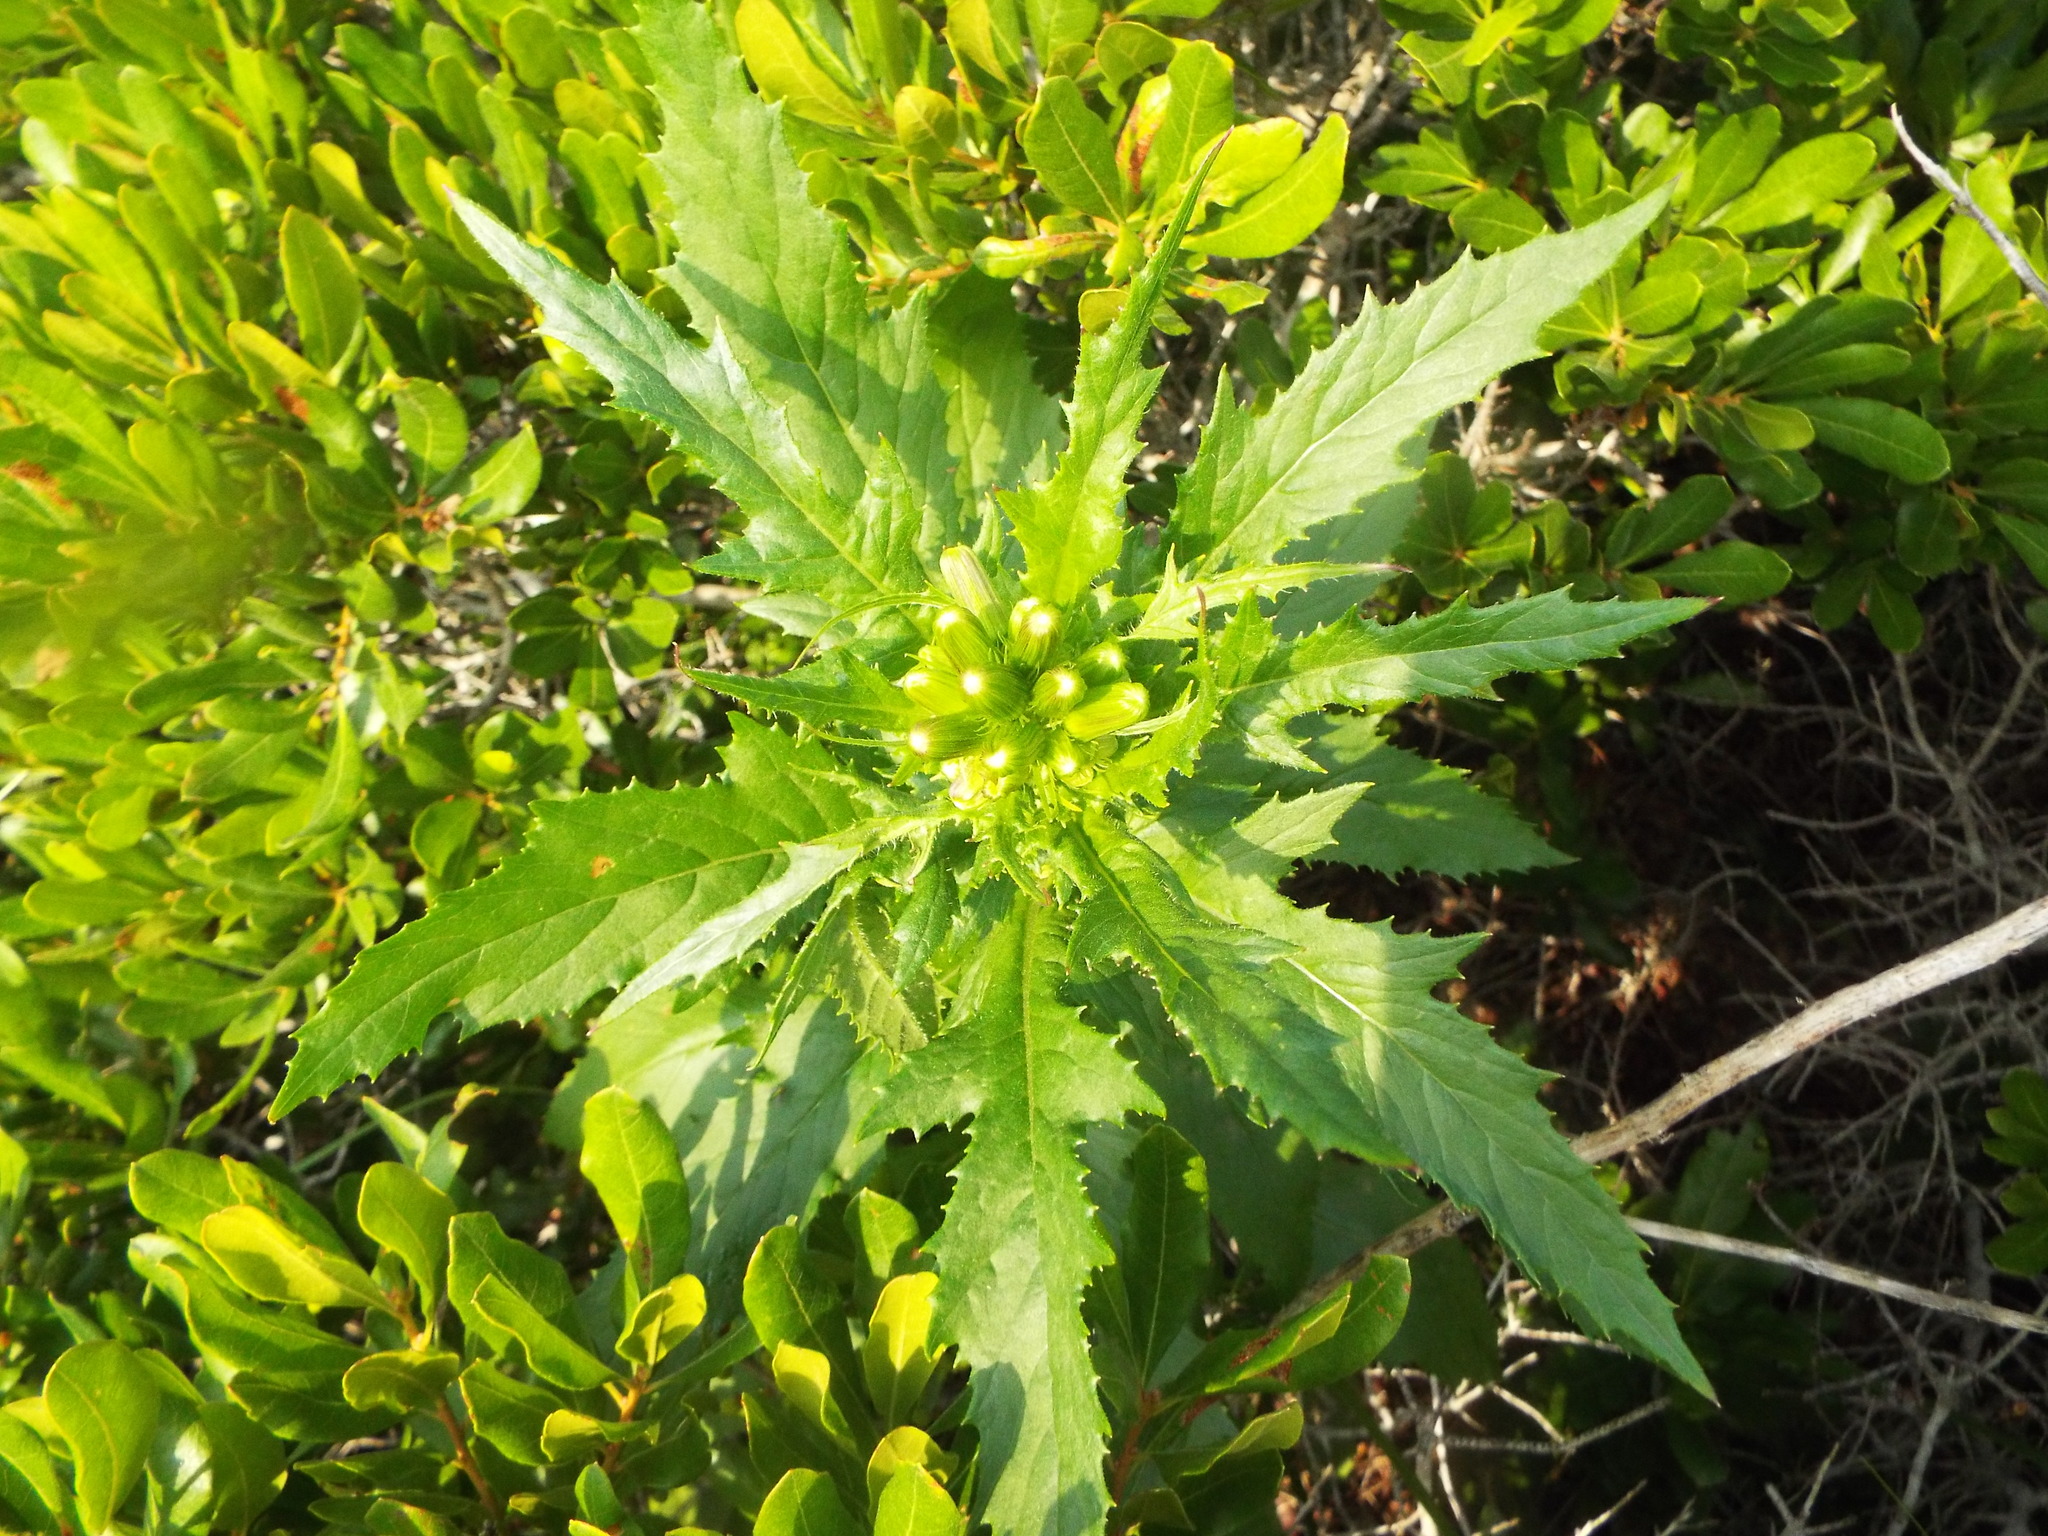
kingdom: Plantae
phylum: Tracheophyta
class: Magnoliopsida
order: Asterales
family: Asteraceae
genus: Erechtites
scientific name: Erechtites hieraciifolius
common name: American burnweed
